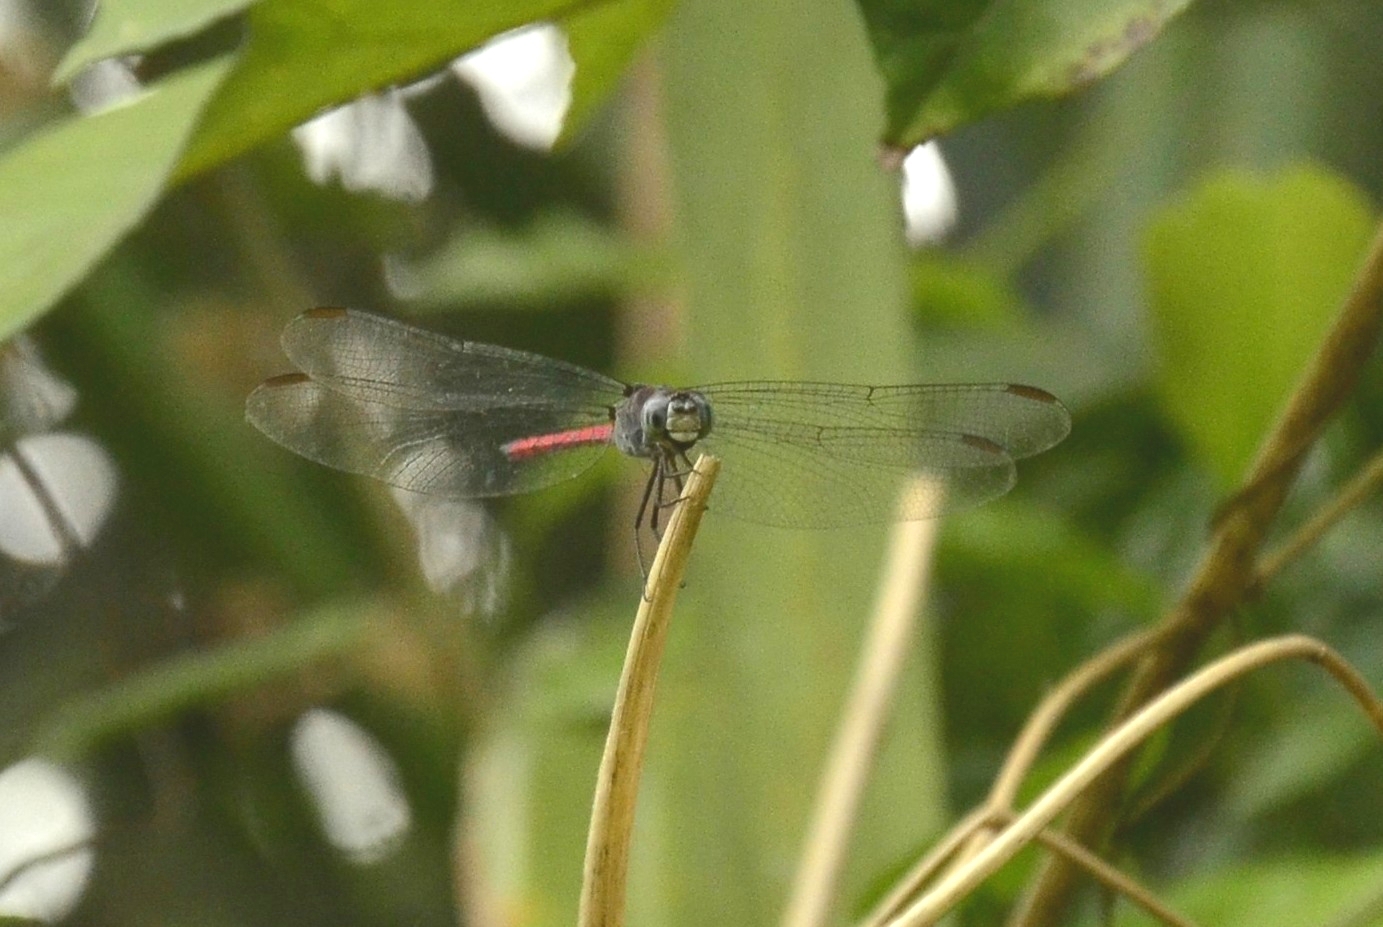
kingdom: Animalia
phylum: Arthropoda
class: Insecta
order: Odonata
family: Libellulidae
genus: Lathrecista
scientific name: Lathrecista asiatica
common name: Scarlet grenadier
